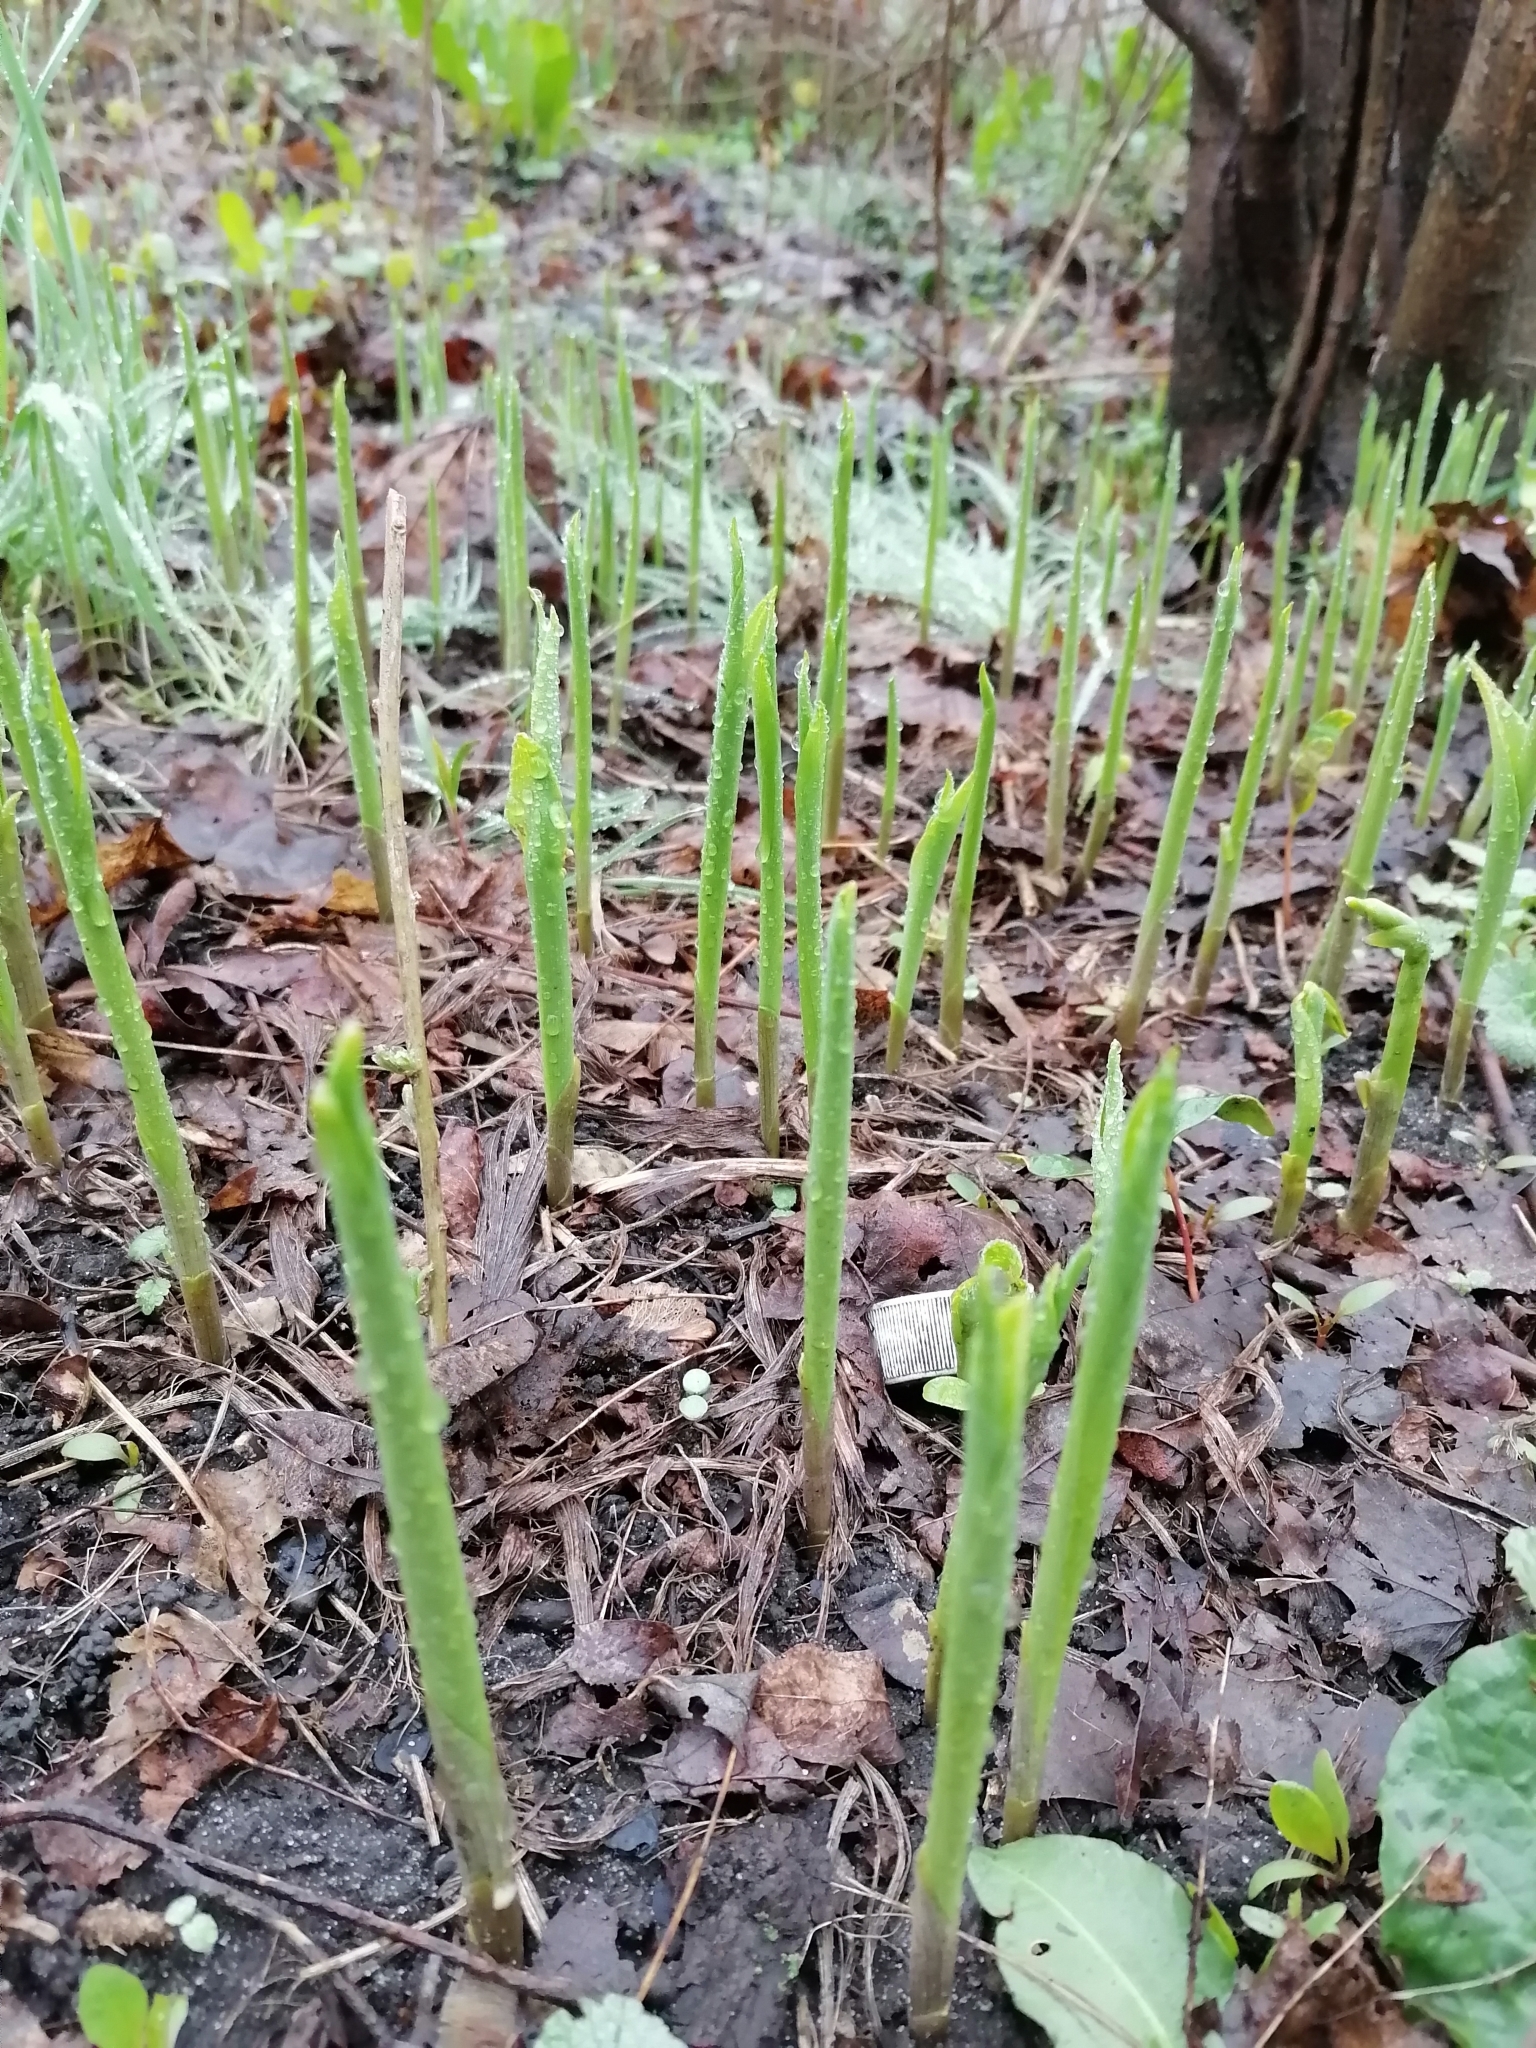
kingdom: Plantae
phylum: Tracheophyta
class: Liliopsida
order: Asparagales
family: Asparagaceae
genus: Convallaria
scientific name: Convallaria majalis
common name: Lily-of-the-valley
